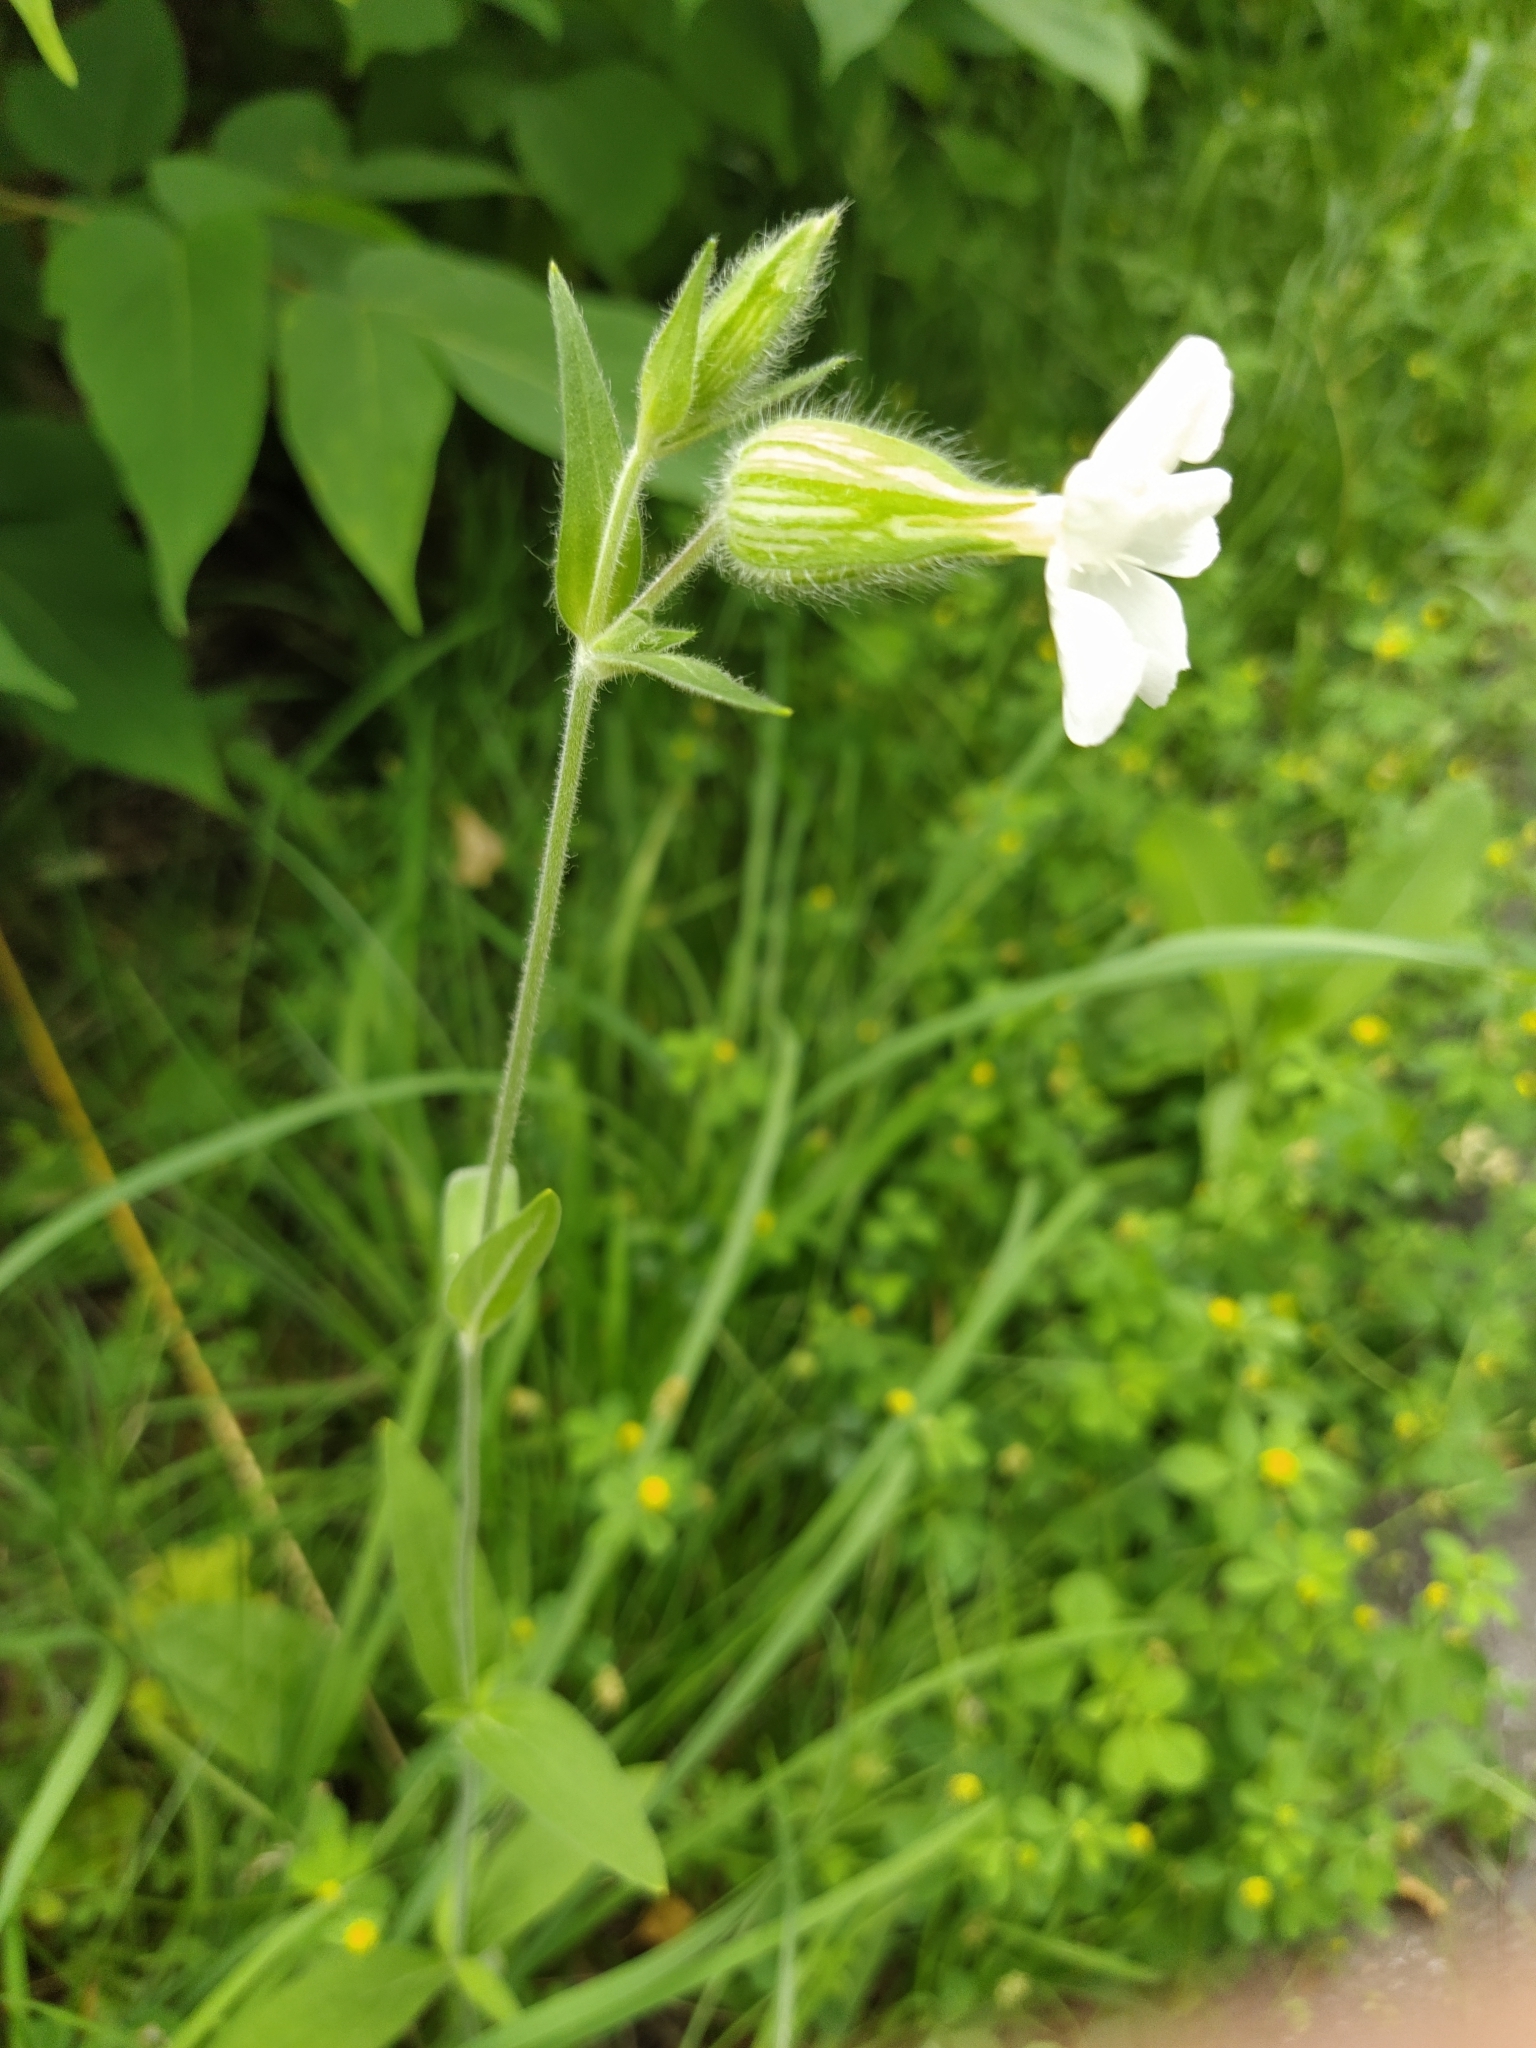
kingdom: Plantae
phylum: Tracheophyta
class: Magnoliopsida
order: Caryophyllales
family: Caryophyllaceae
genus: Silene
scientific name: Silene latifolia
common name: White campion
